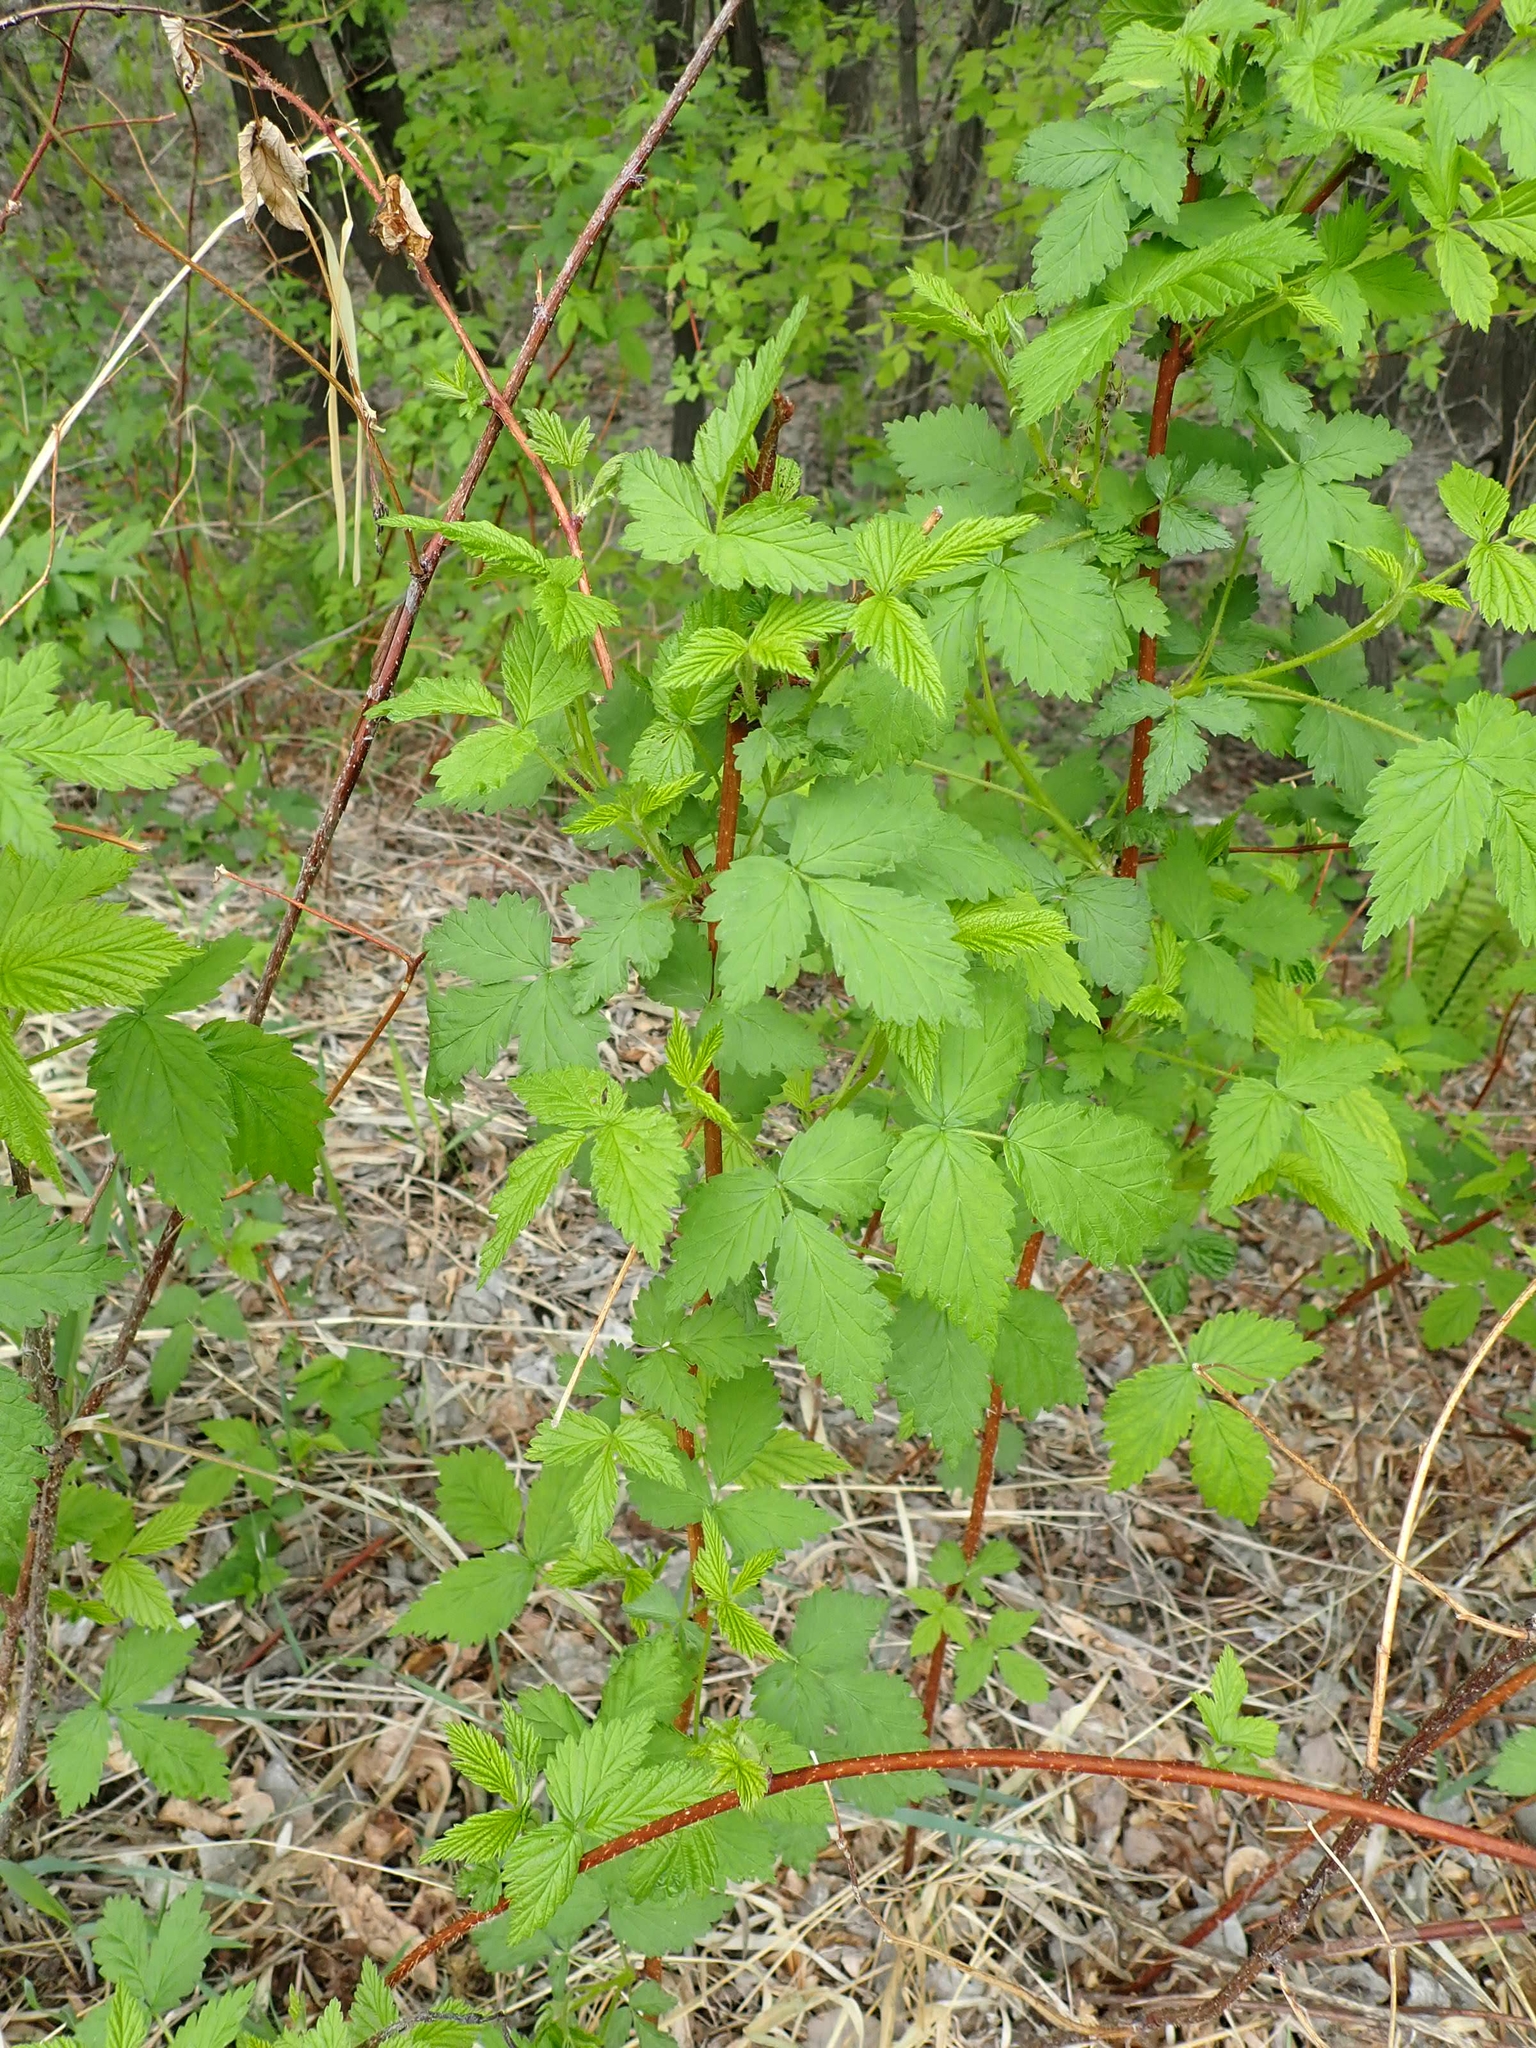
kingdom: Plantae
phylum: Tracheophyta
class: Magnoliopsida
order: Rosales
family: Rosaceae
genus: Rubus
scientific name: Rubus idaeus
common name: Raspberry
